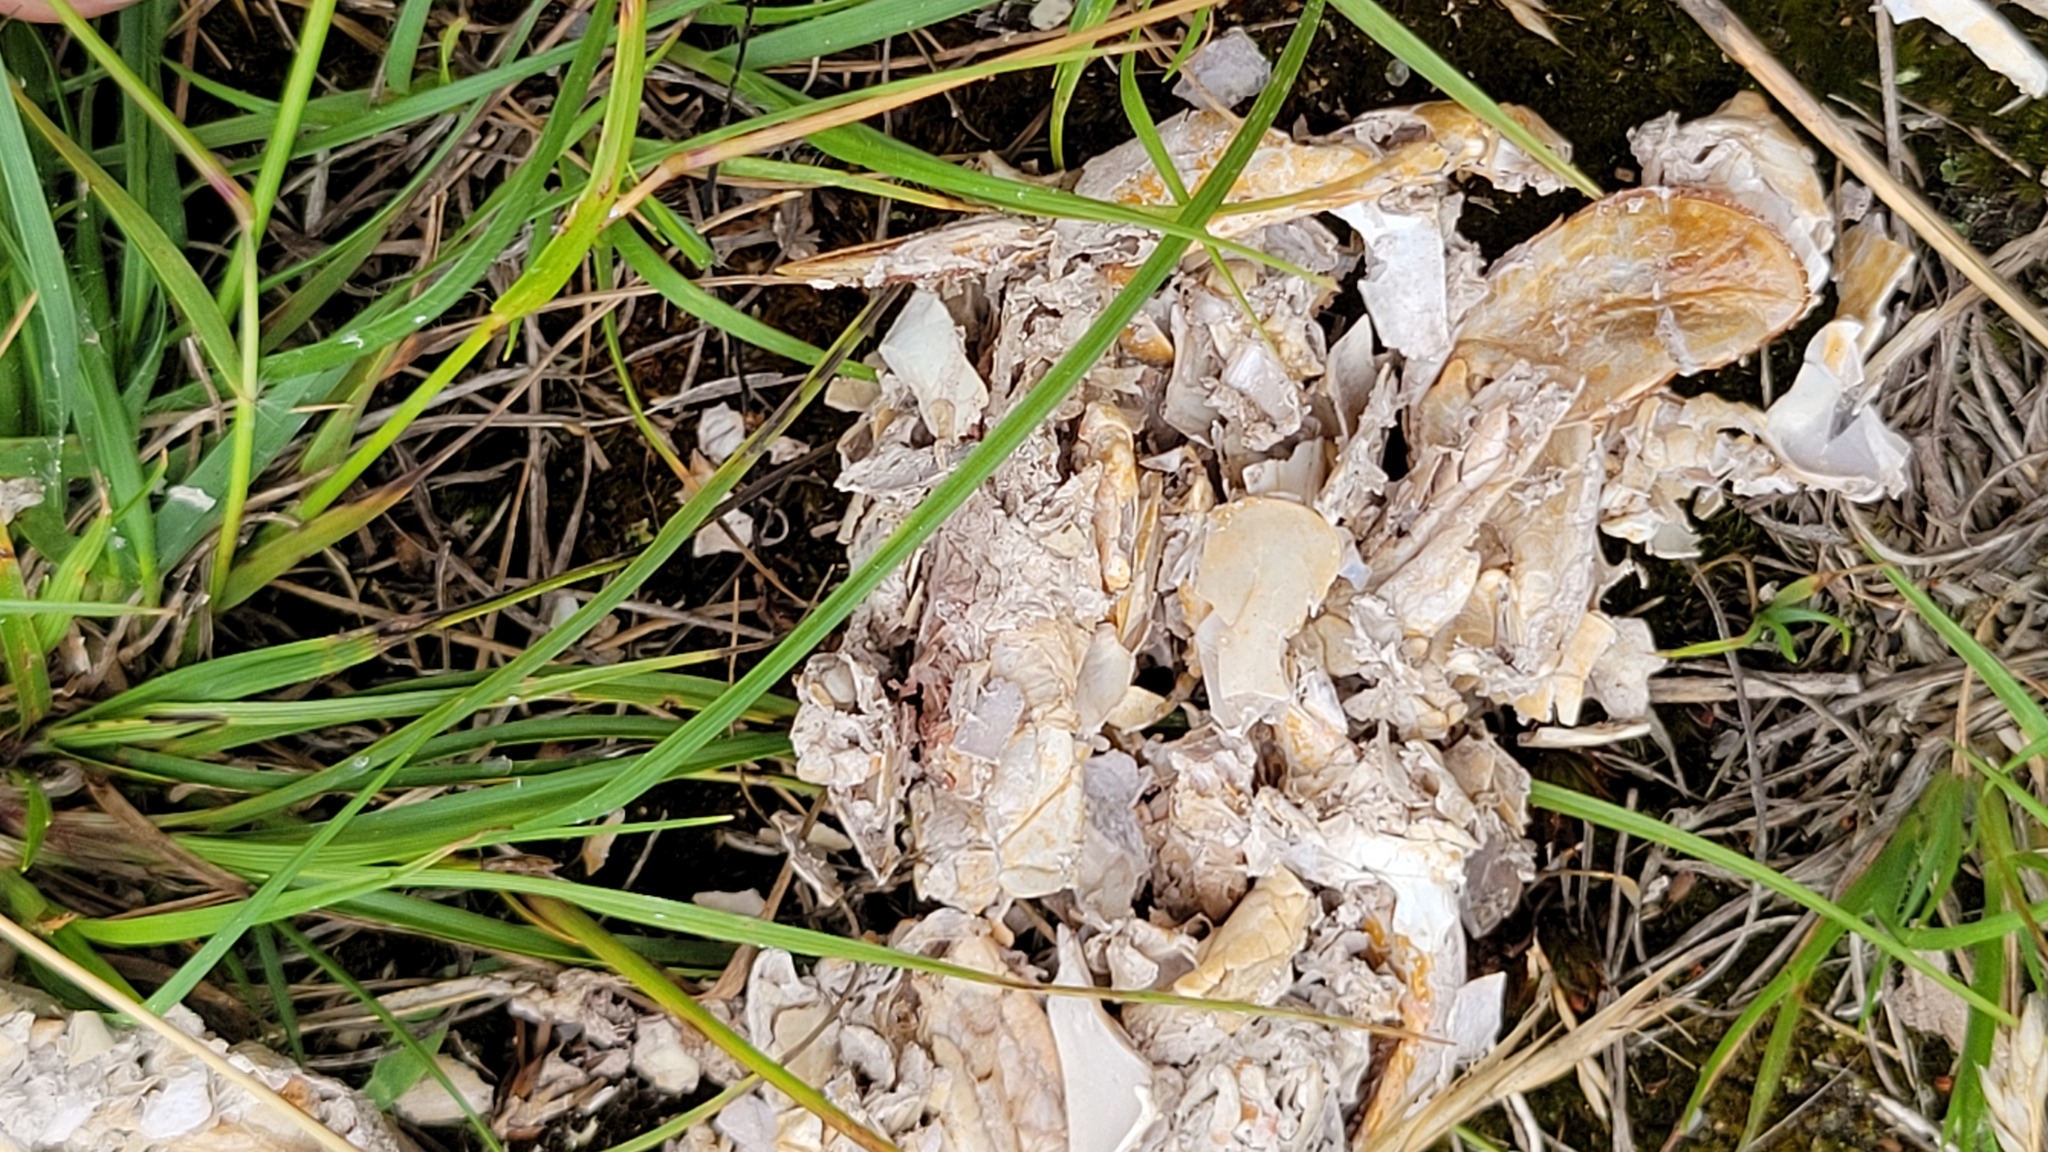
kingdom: Animalia
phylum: Chordata
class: Mammalia
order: Carnivora
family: Mustelidae
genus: Lontra
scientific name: Lontra canadensis
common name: North american river otter
